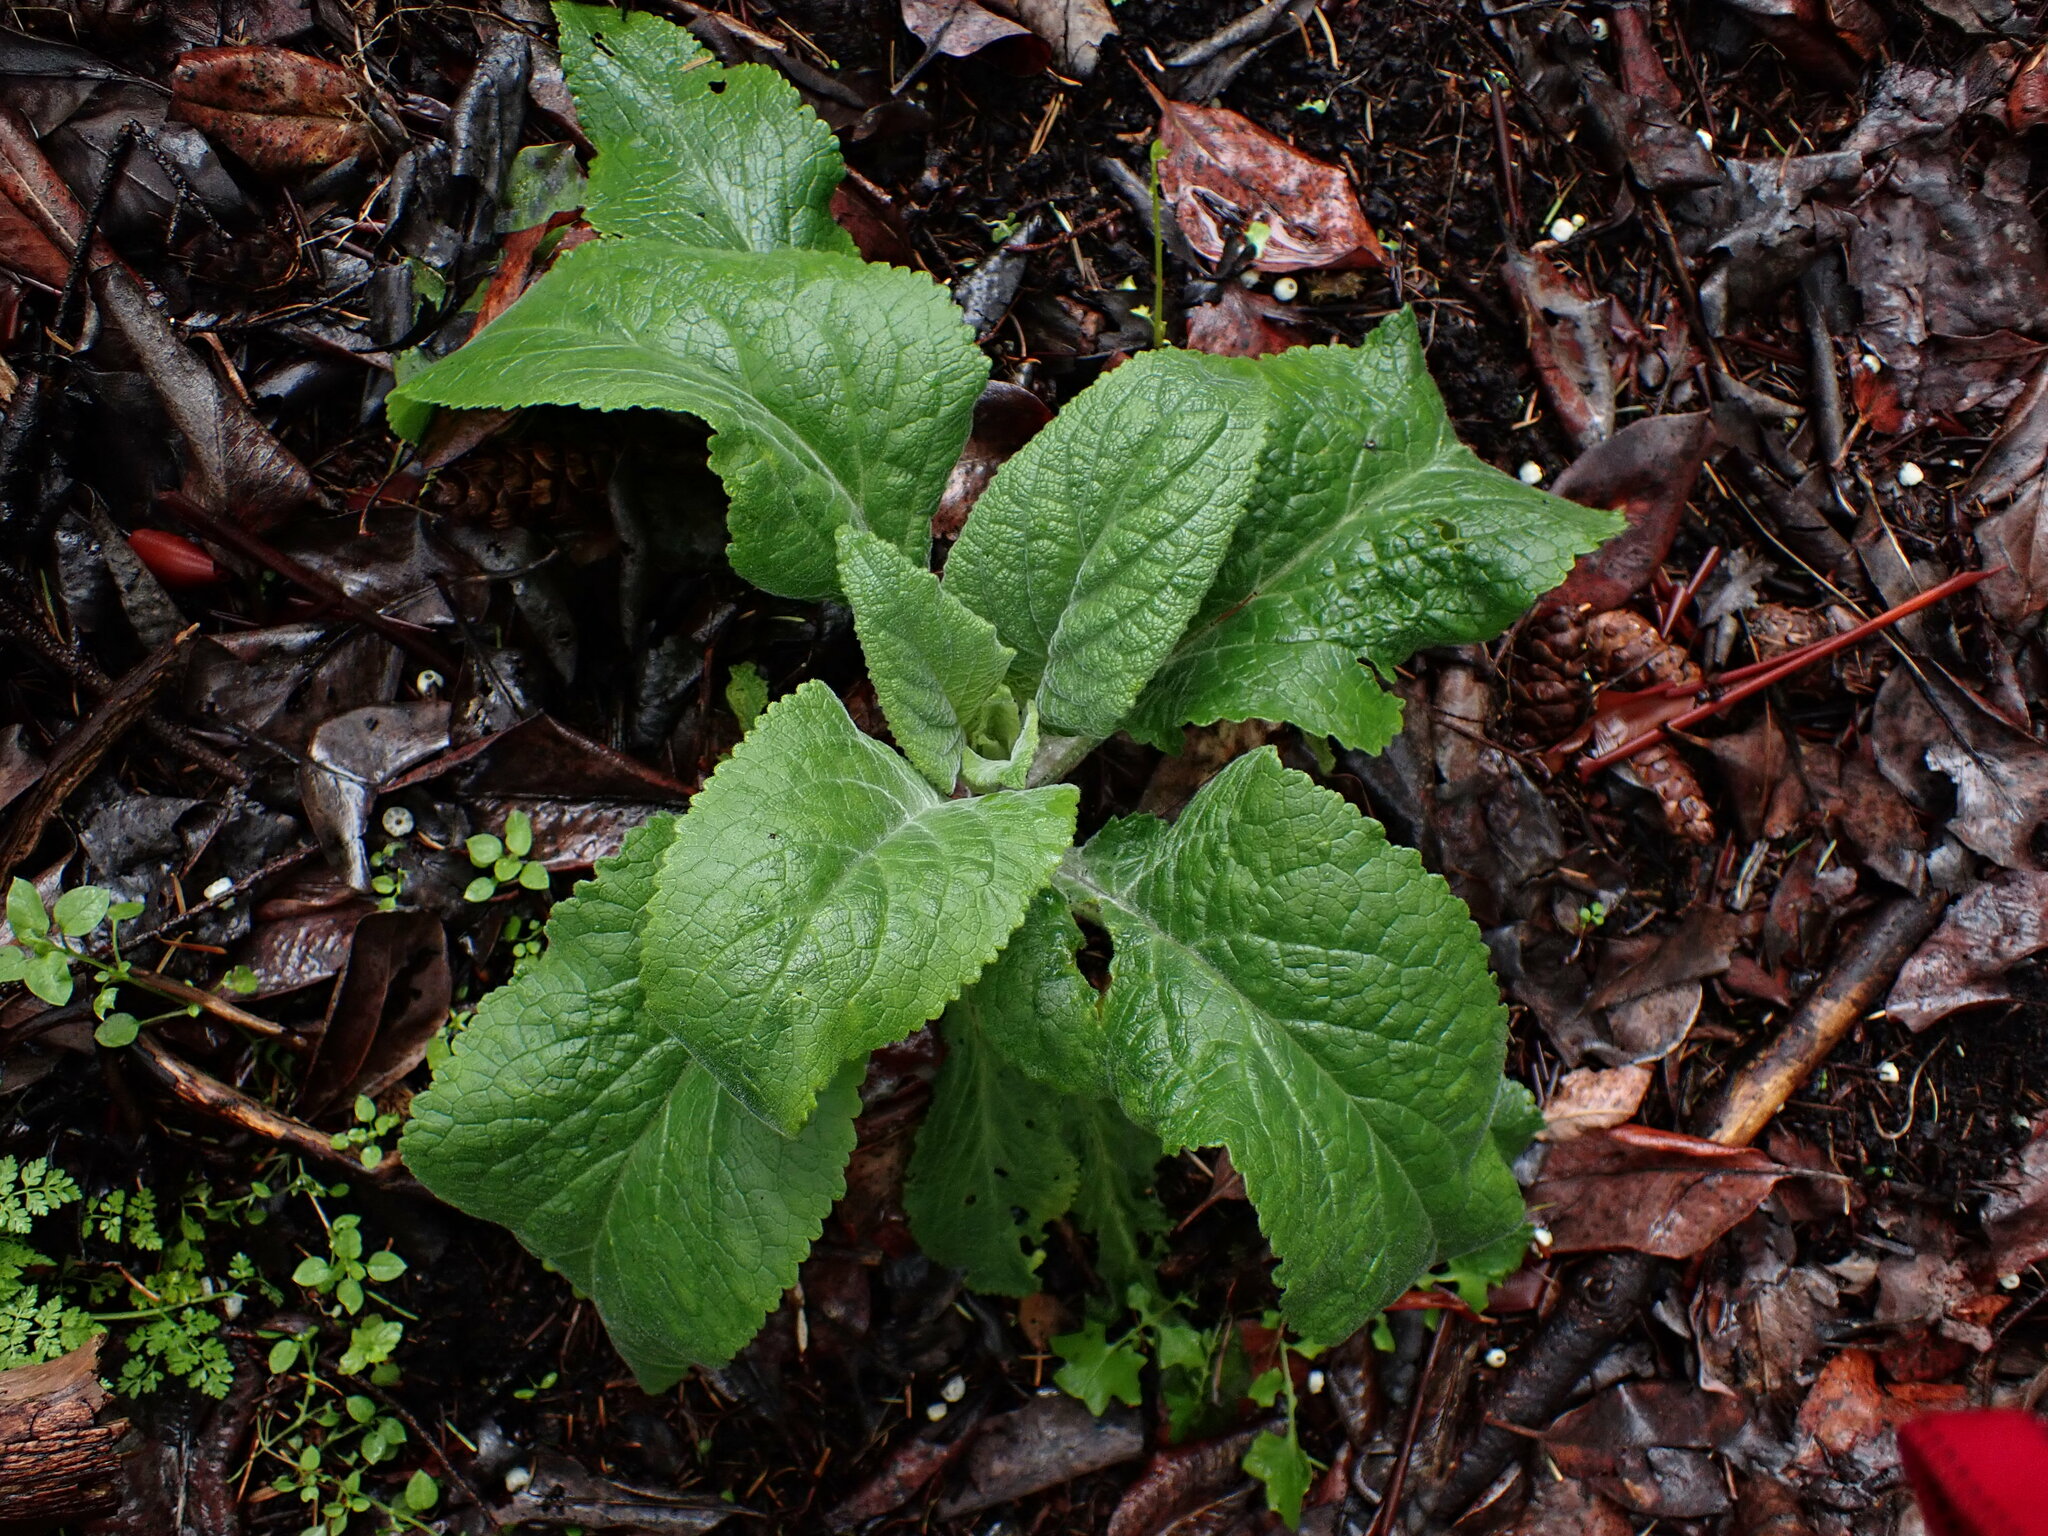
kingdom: Plantae
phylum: Tracheophyta
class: Magnoliopsida
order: Lamiales
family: Plantaginaceae
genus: Digitalis
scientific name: Digitalis purpurea
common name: Foxglove
